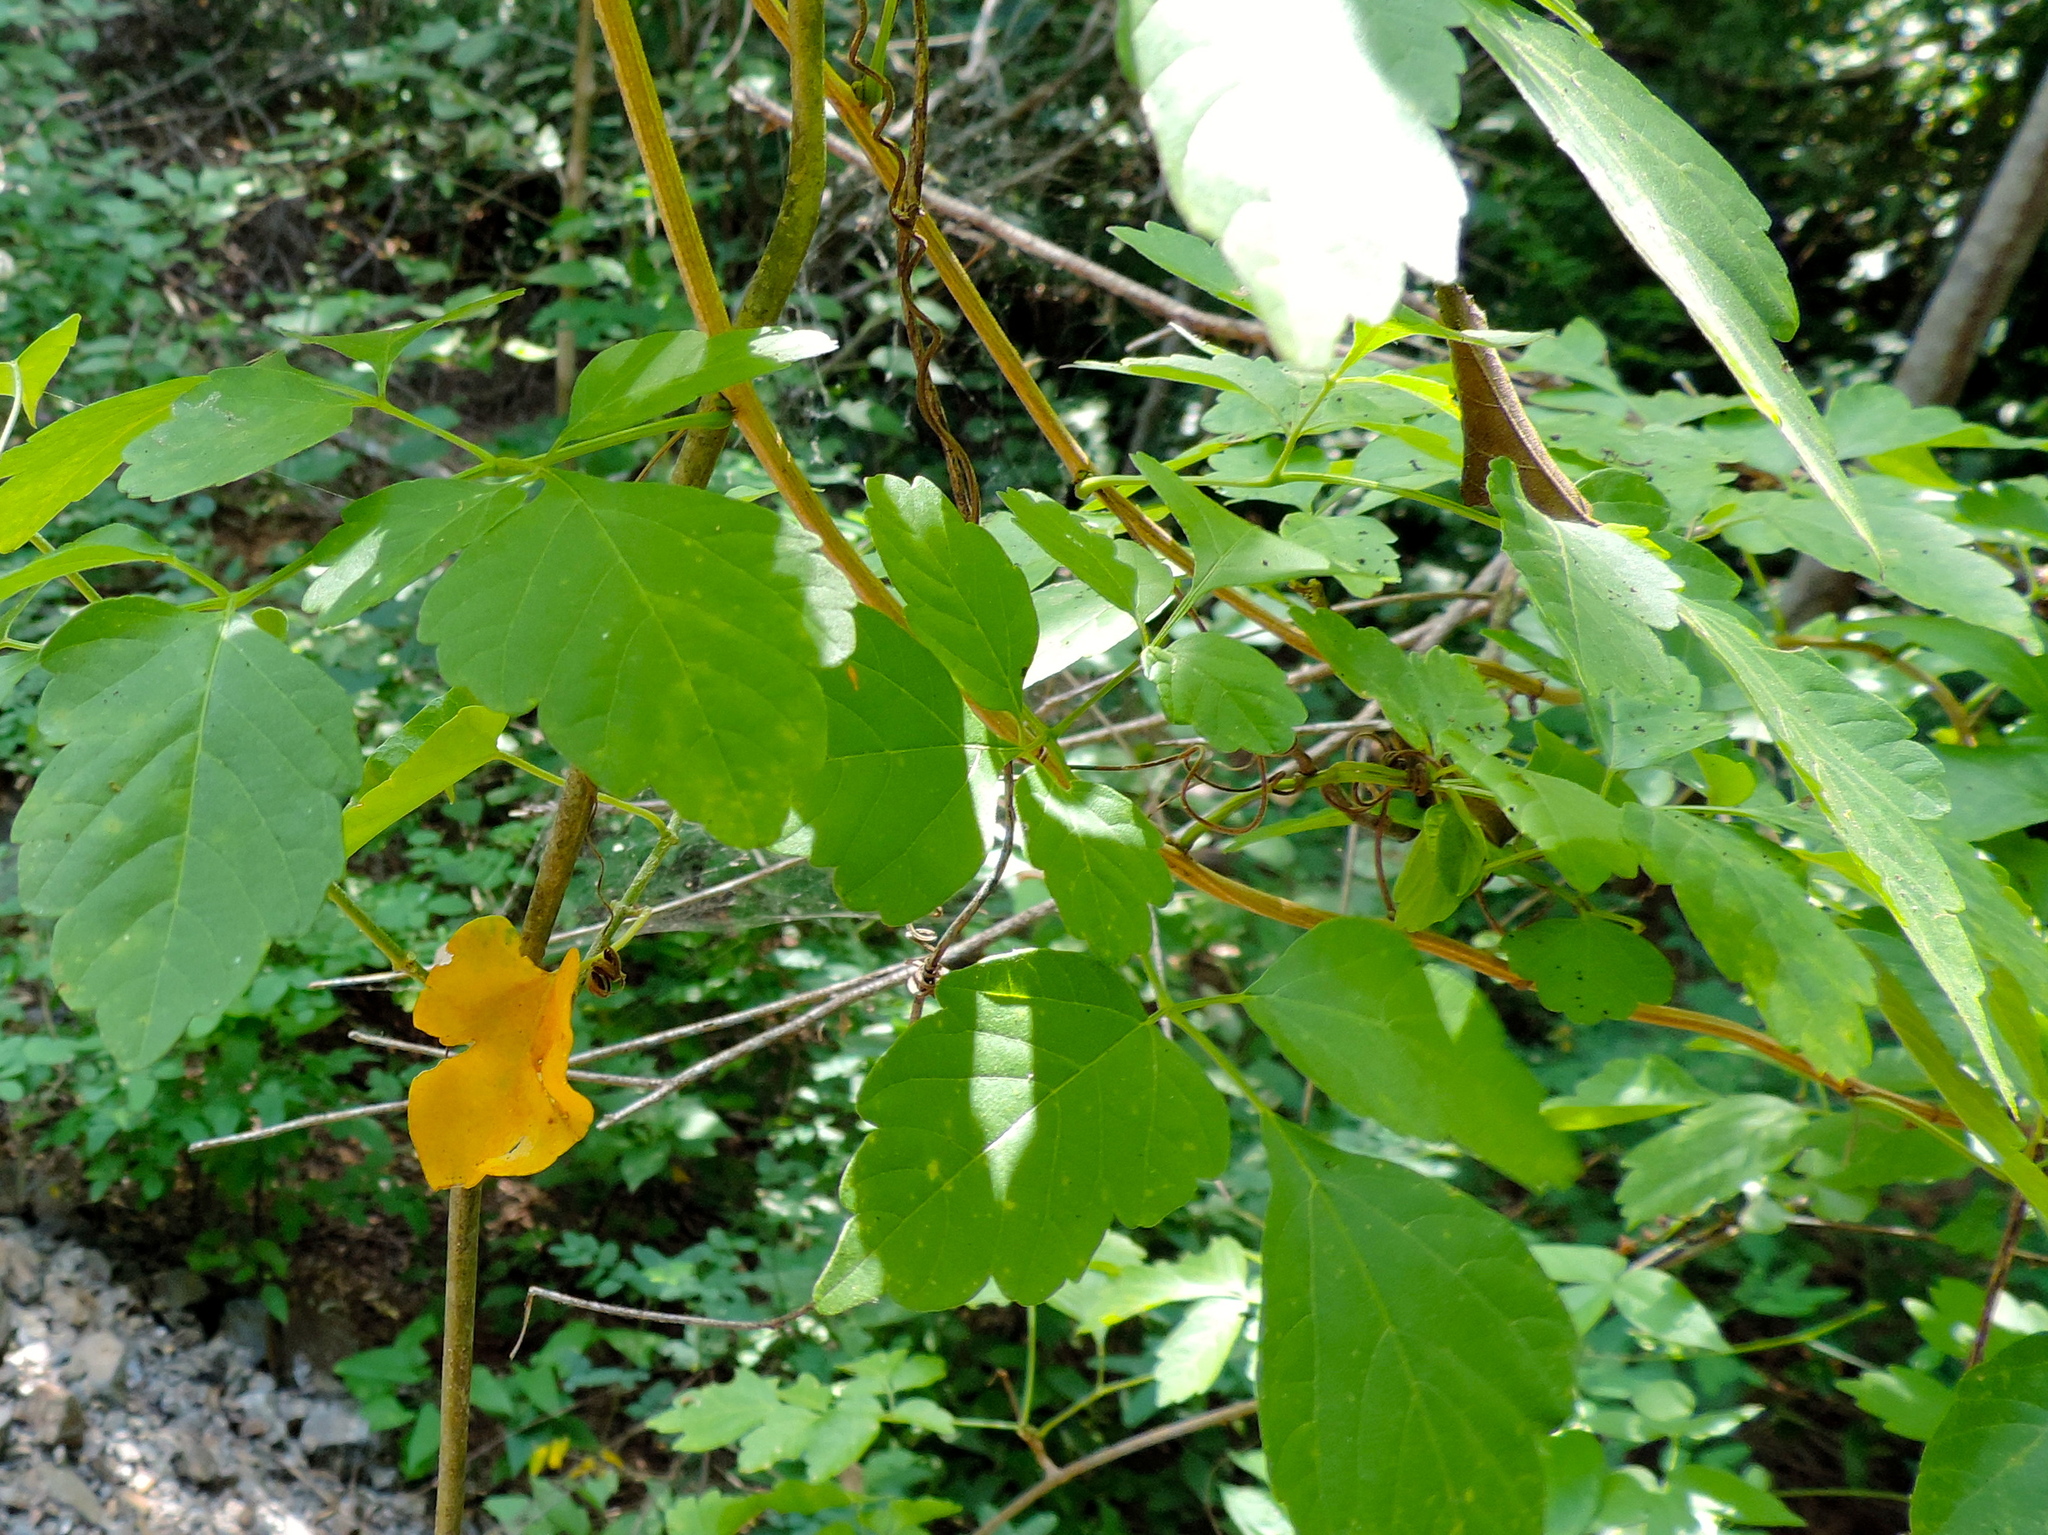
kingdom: Plantae
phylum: Tracheophyta
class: Magnoliopsida
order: Sapindales
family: Sapindaceae
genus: Paullinia
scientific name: Paullinia fuscescens
